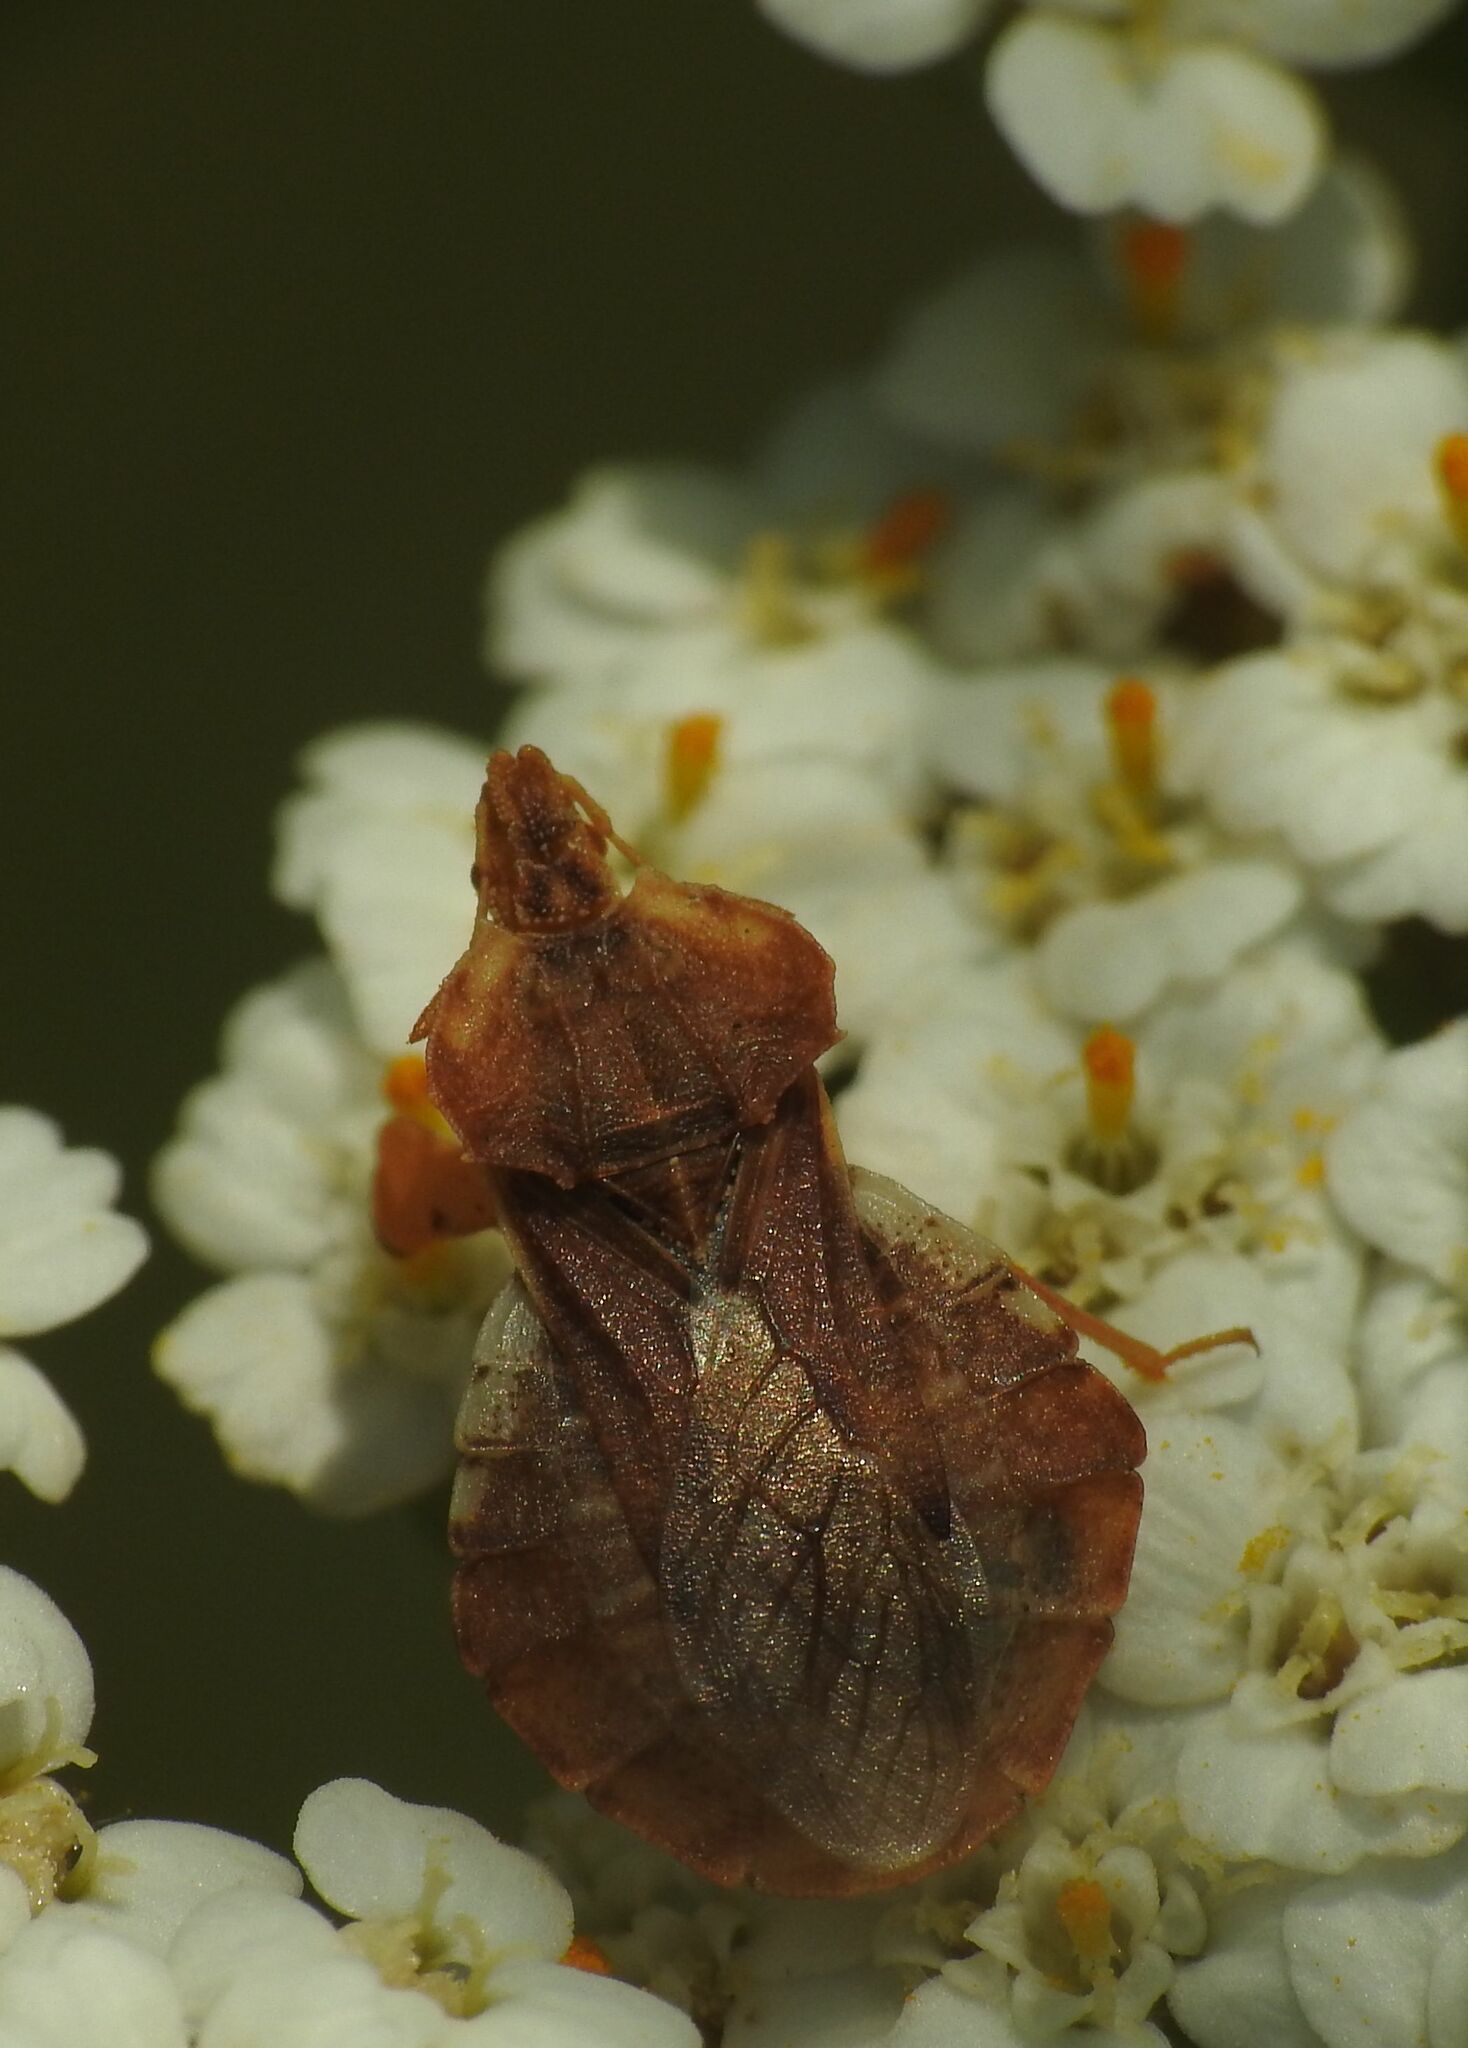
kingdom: Animalia
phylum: Arthropoda
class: Insecta
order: Hemiptera
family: Reduviidae
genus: Phymata
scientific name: Phymata crassipes
